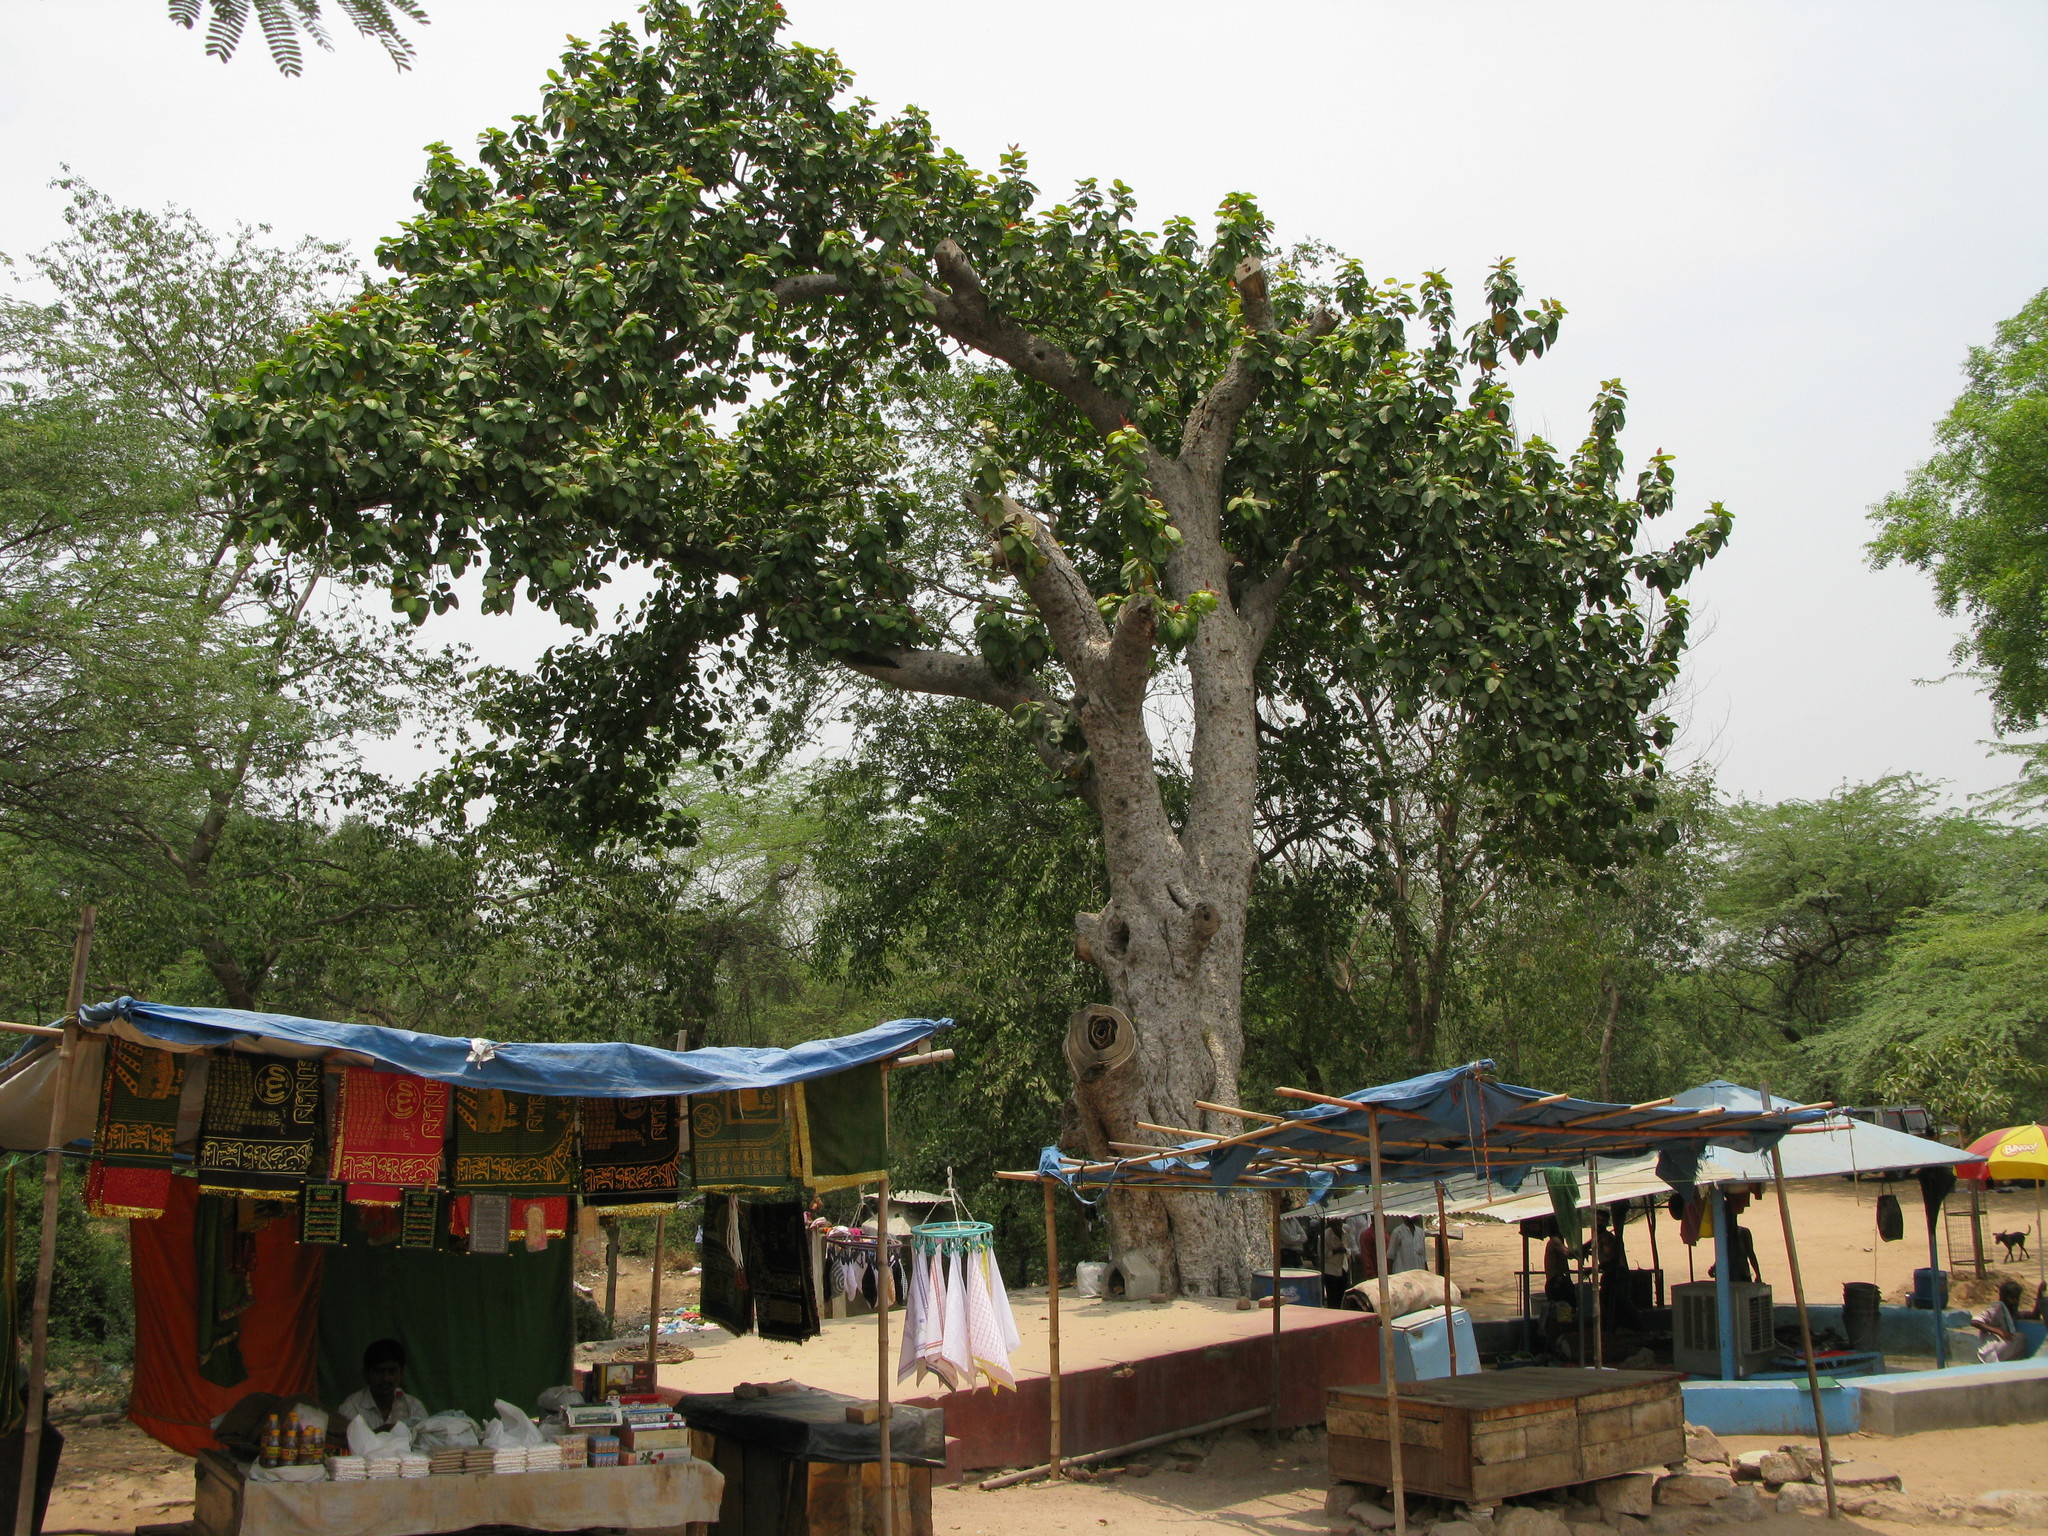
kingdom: Plantae
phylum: Tracheophyta
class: Magnoliopsida
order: Rosales
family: Moraceae
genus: Ficus
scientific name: Ficus elastica
